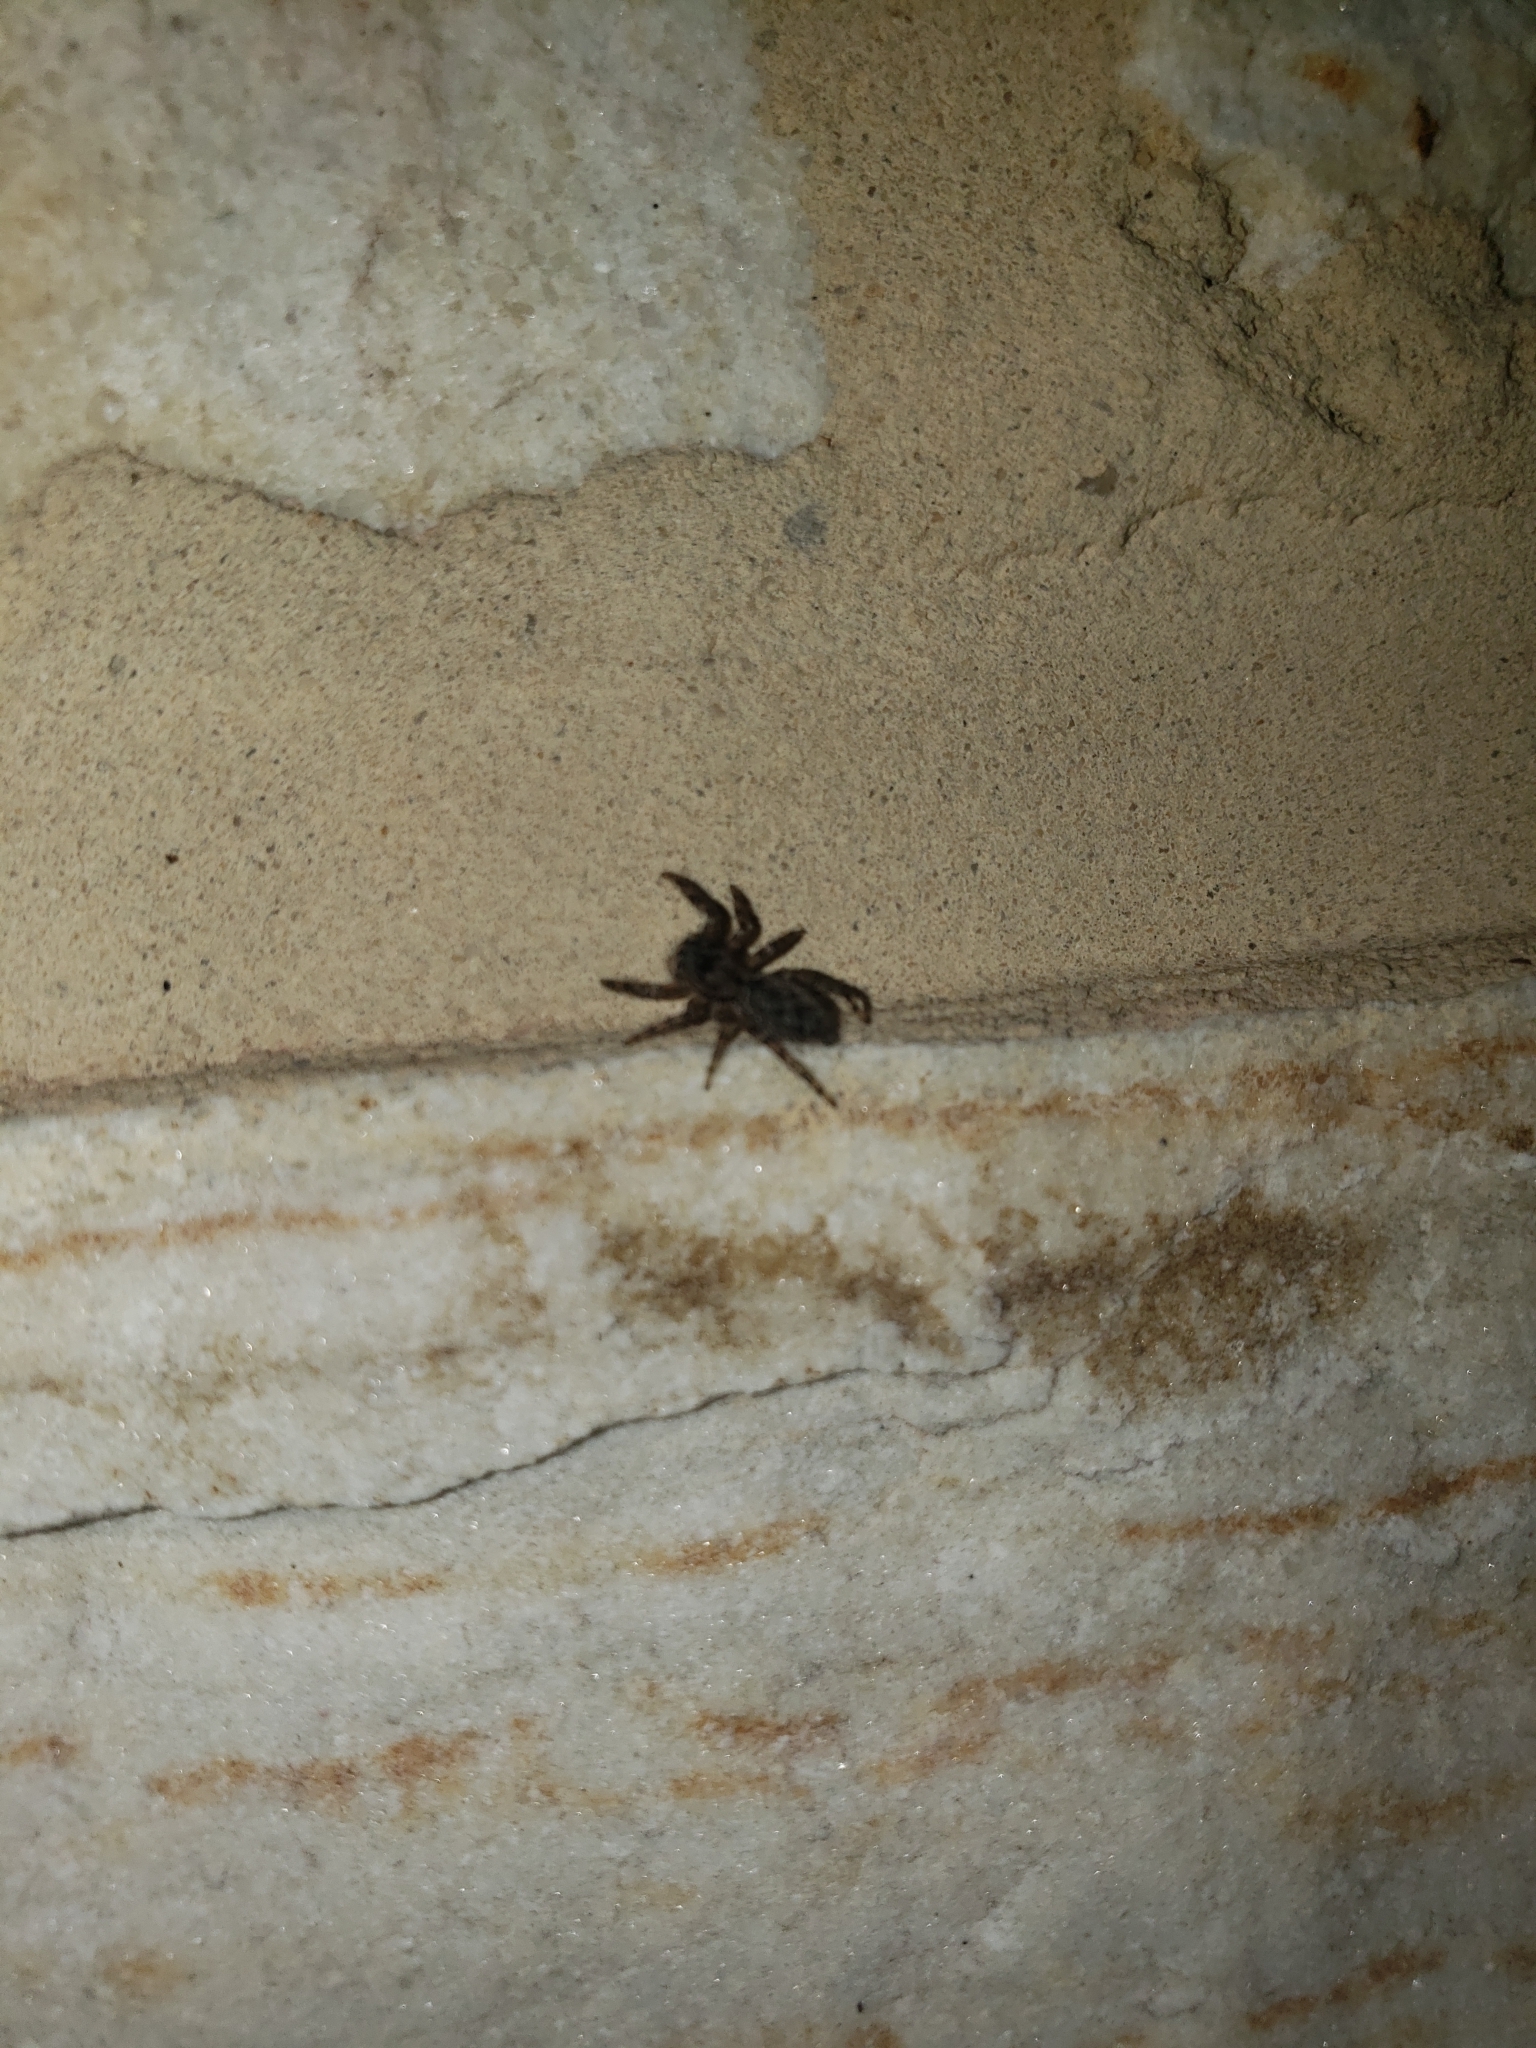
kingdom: Animalia
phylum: Arthropoda
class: Arachnida
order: Araneae
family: Salticidae
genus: Platycryptus
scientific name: Platycryptus undatus
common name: Tan jumping spider
